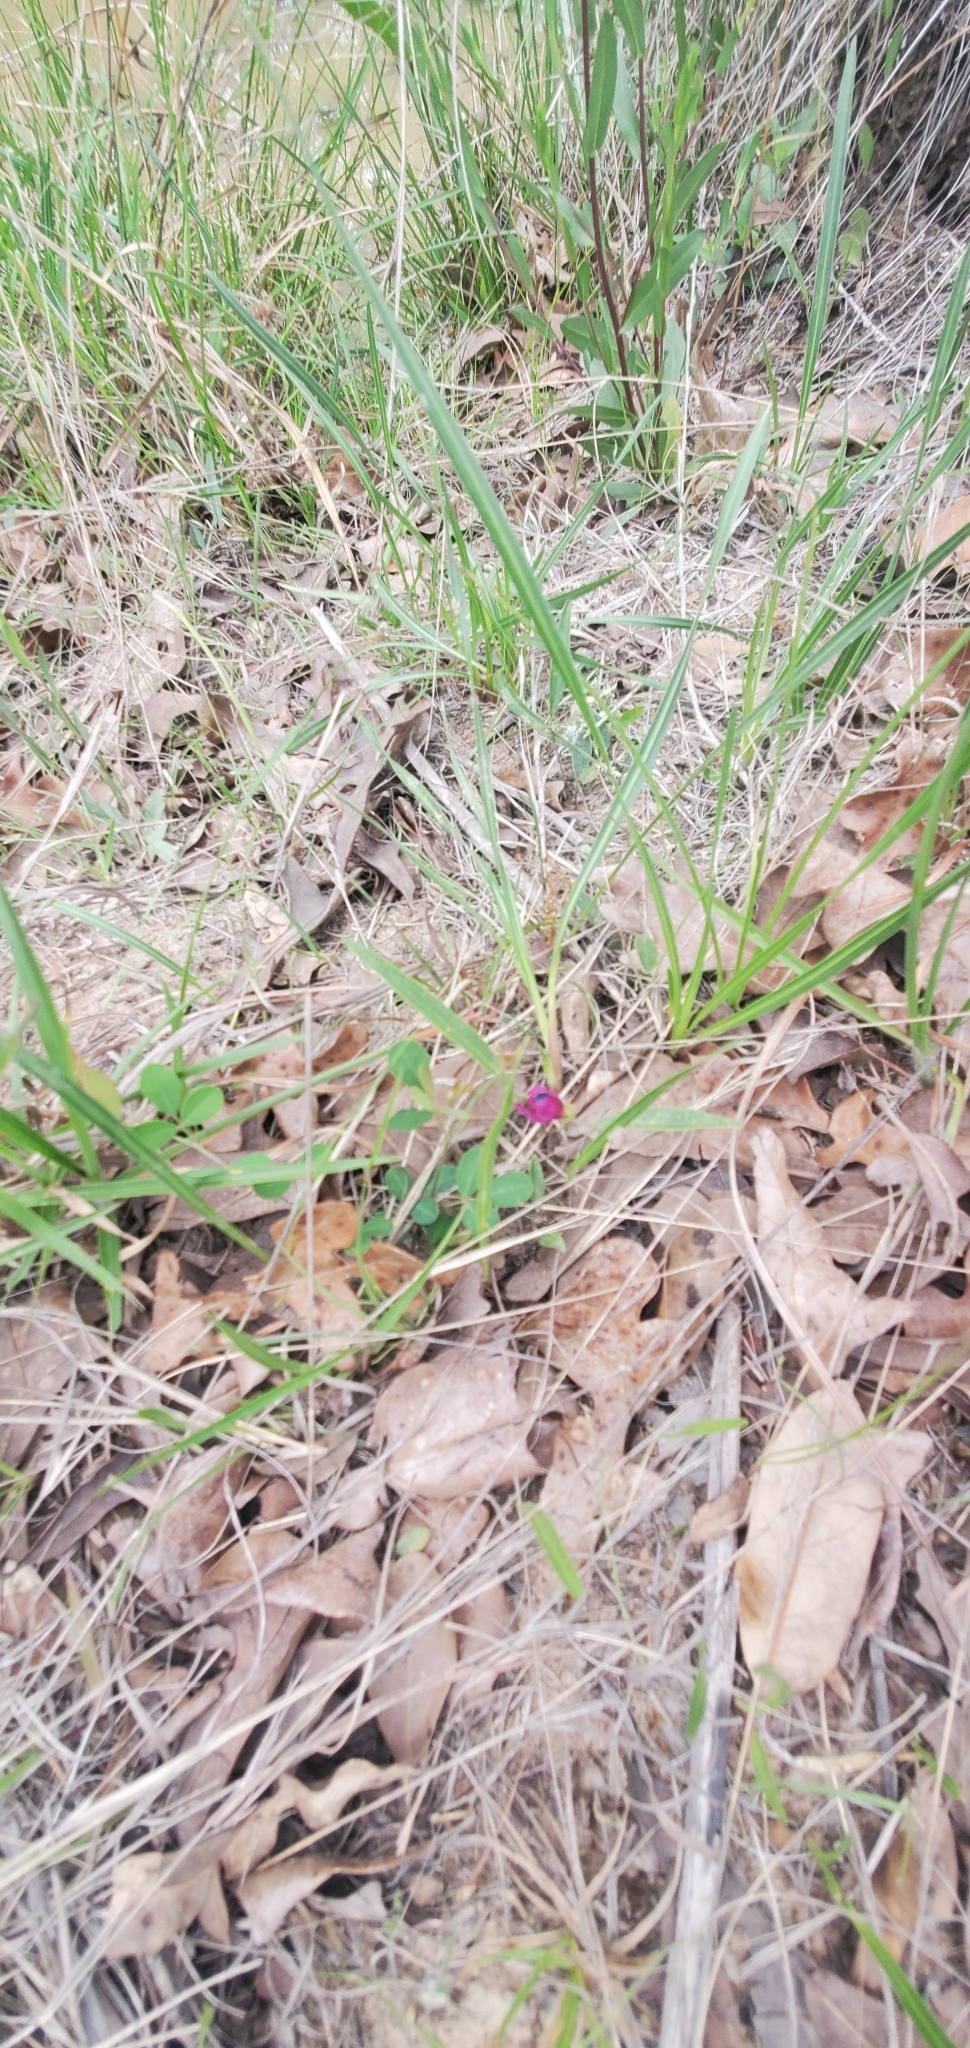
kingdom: Plantae
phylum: Tracheophyta
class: Magnoliopsida
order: Fabales
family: Fabaceae
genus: Nanogalactia
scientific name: Nanogalactia heterophylla
